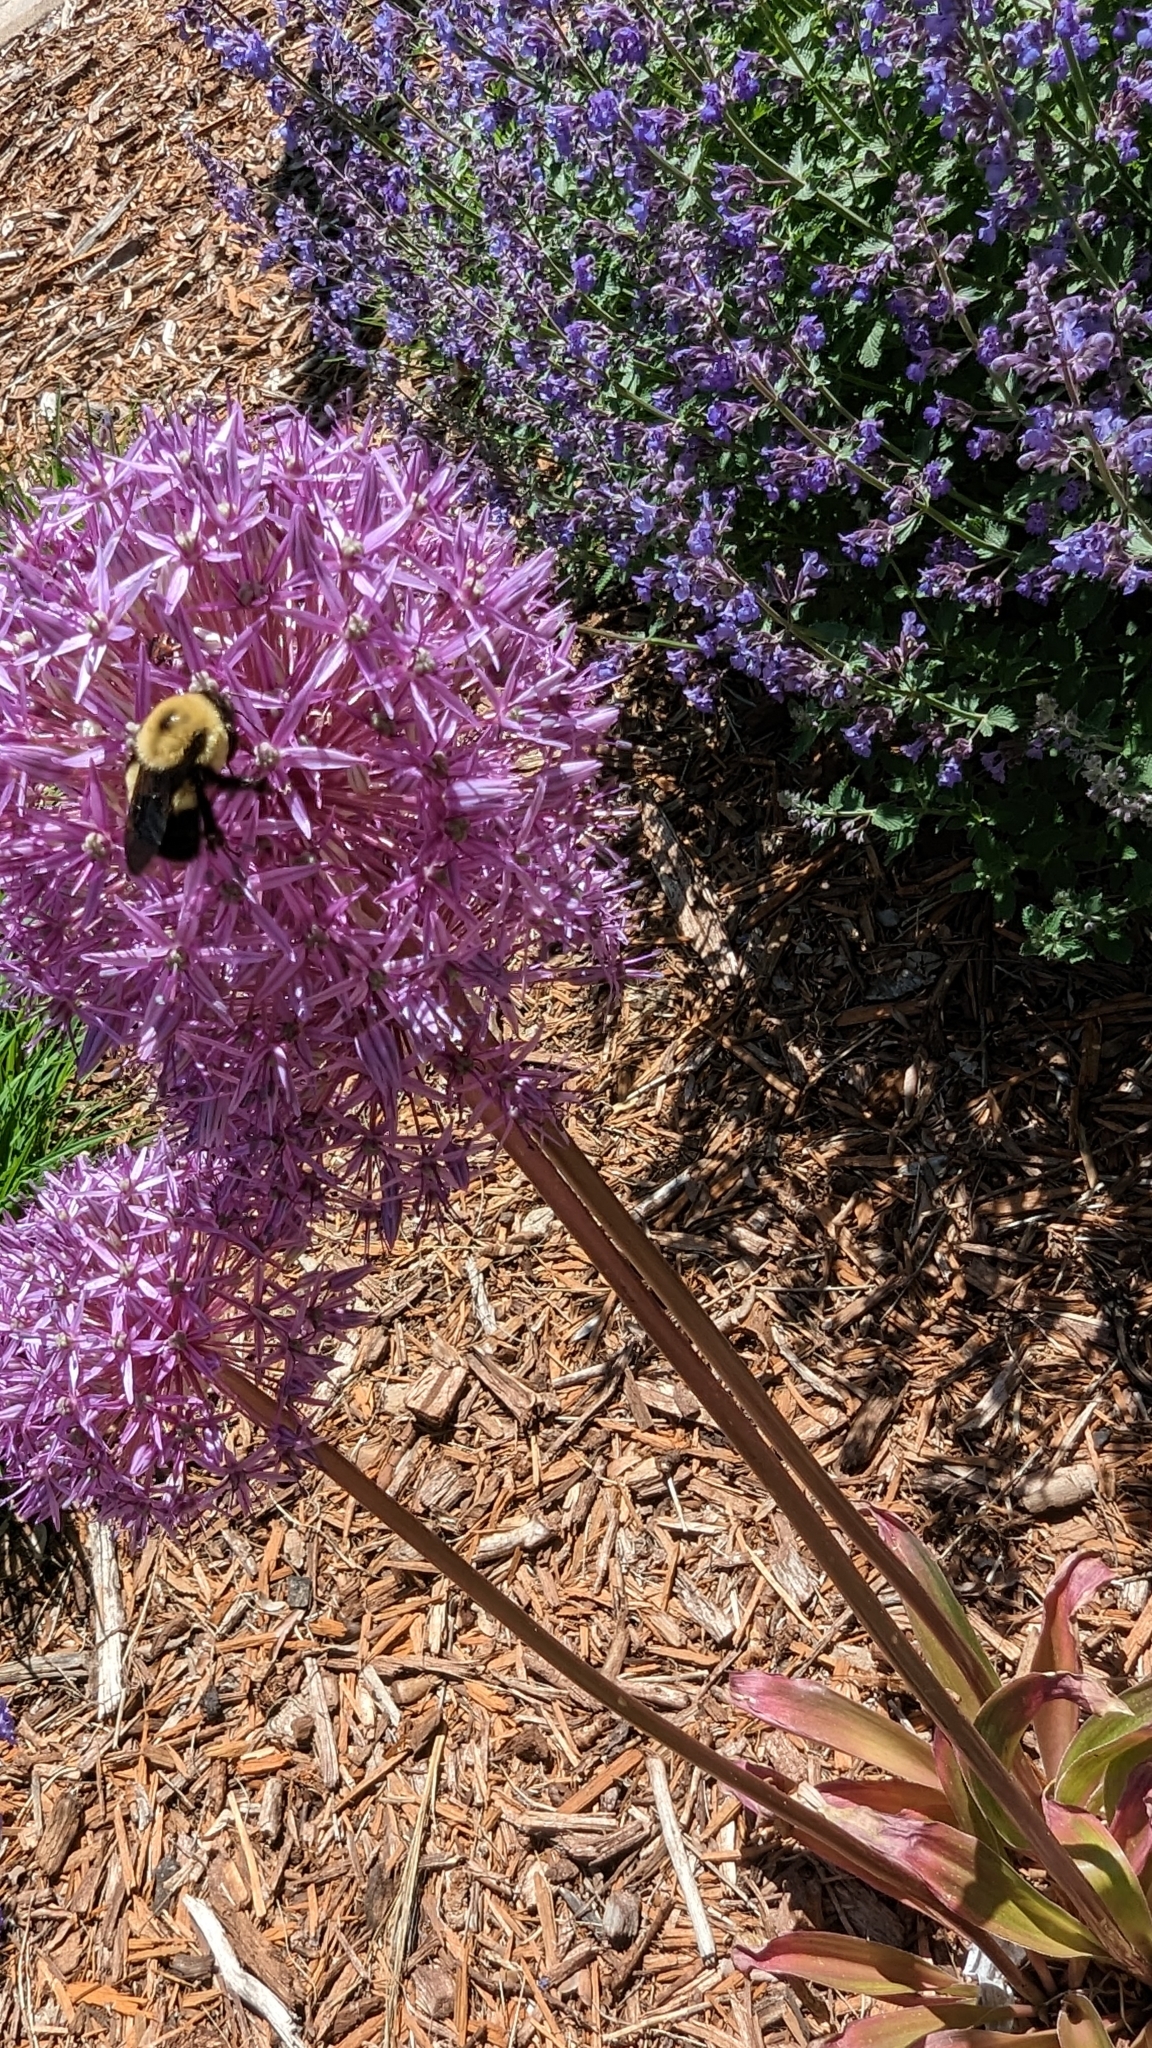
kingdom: Animalia
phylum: Arthropoda
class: Insecta
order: Hymenoptera
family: Apidae
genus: Bombus
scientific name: Bombus griseocollis
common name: Brown-belted bumble bee
